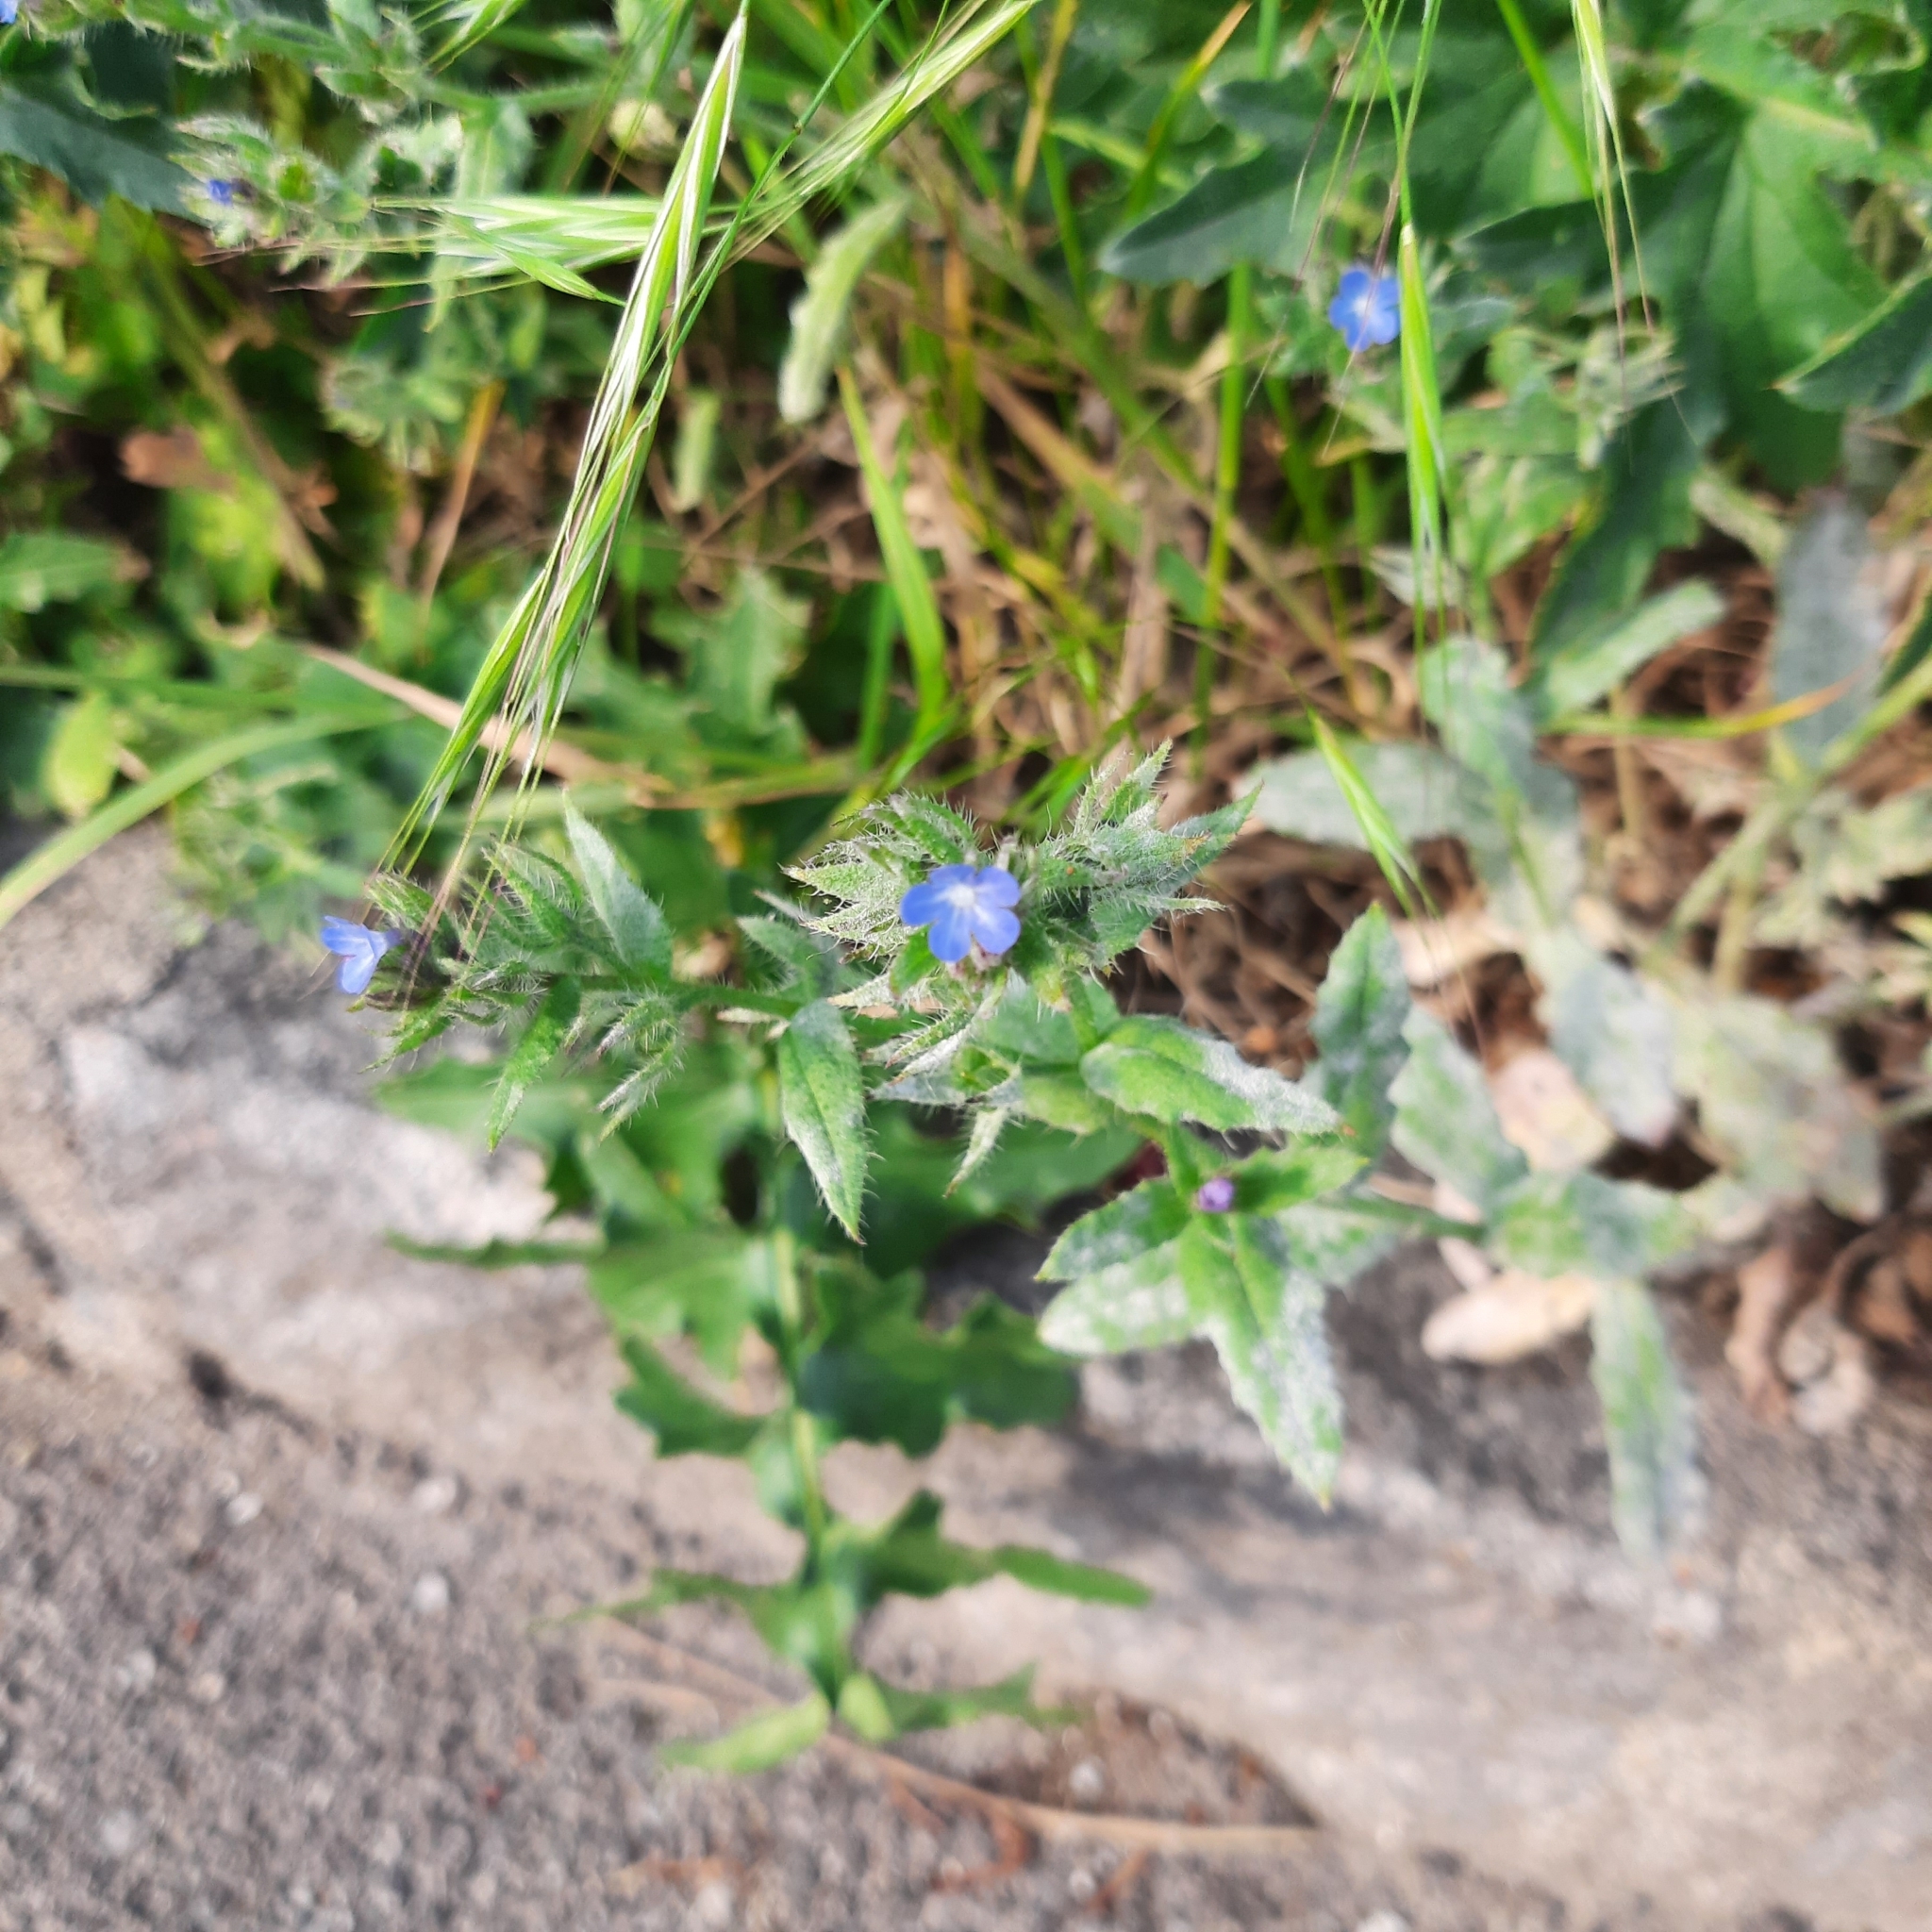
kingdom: Plantae
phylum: Tracheophyta
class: Magnoliopsida
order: Boraginales
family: Boraginaceae
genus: Lycopsis
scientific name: Lycopsis arvensis
